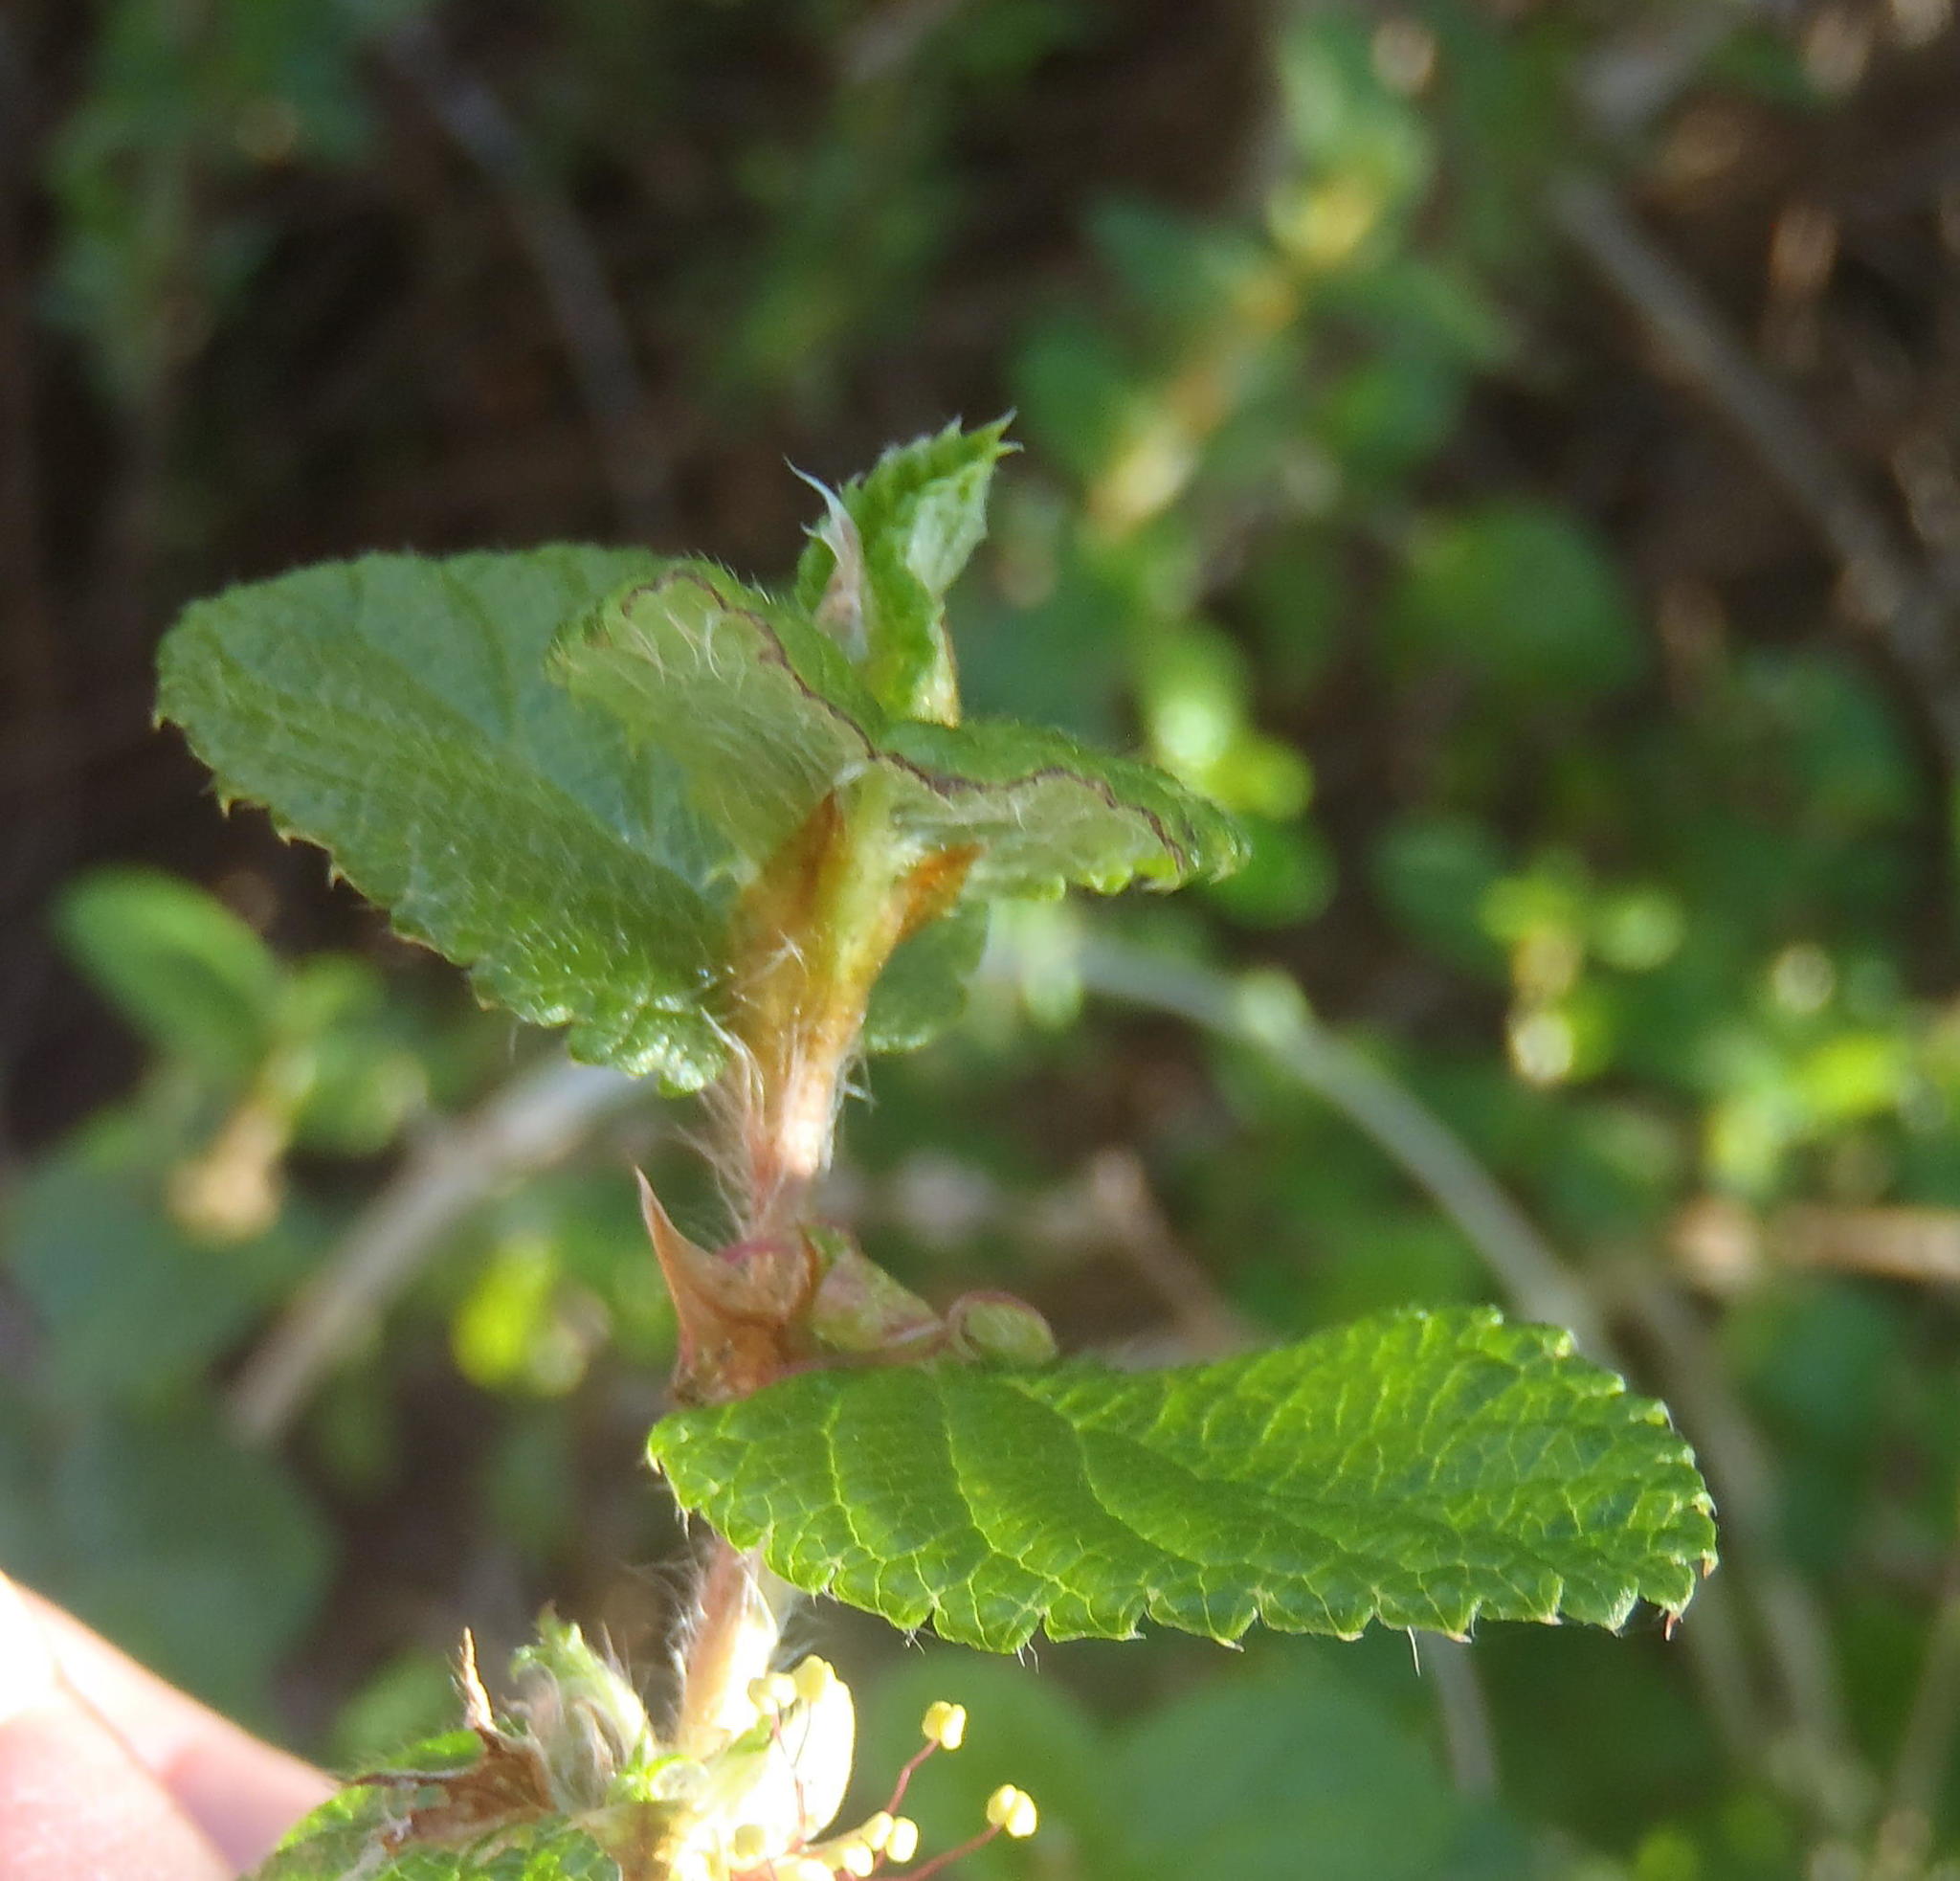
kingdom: Plantae
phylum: Tracheophyta
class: Magnoliopsida
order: Rosales
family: Rosaceae
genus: Cliffortia
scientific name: Cliffortia odorata
